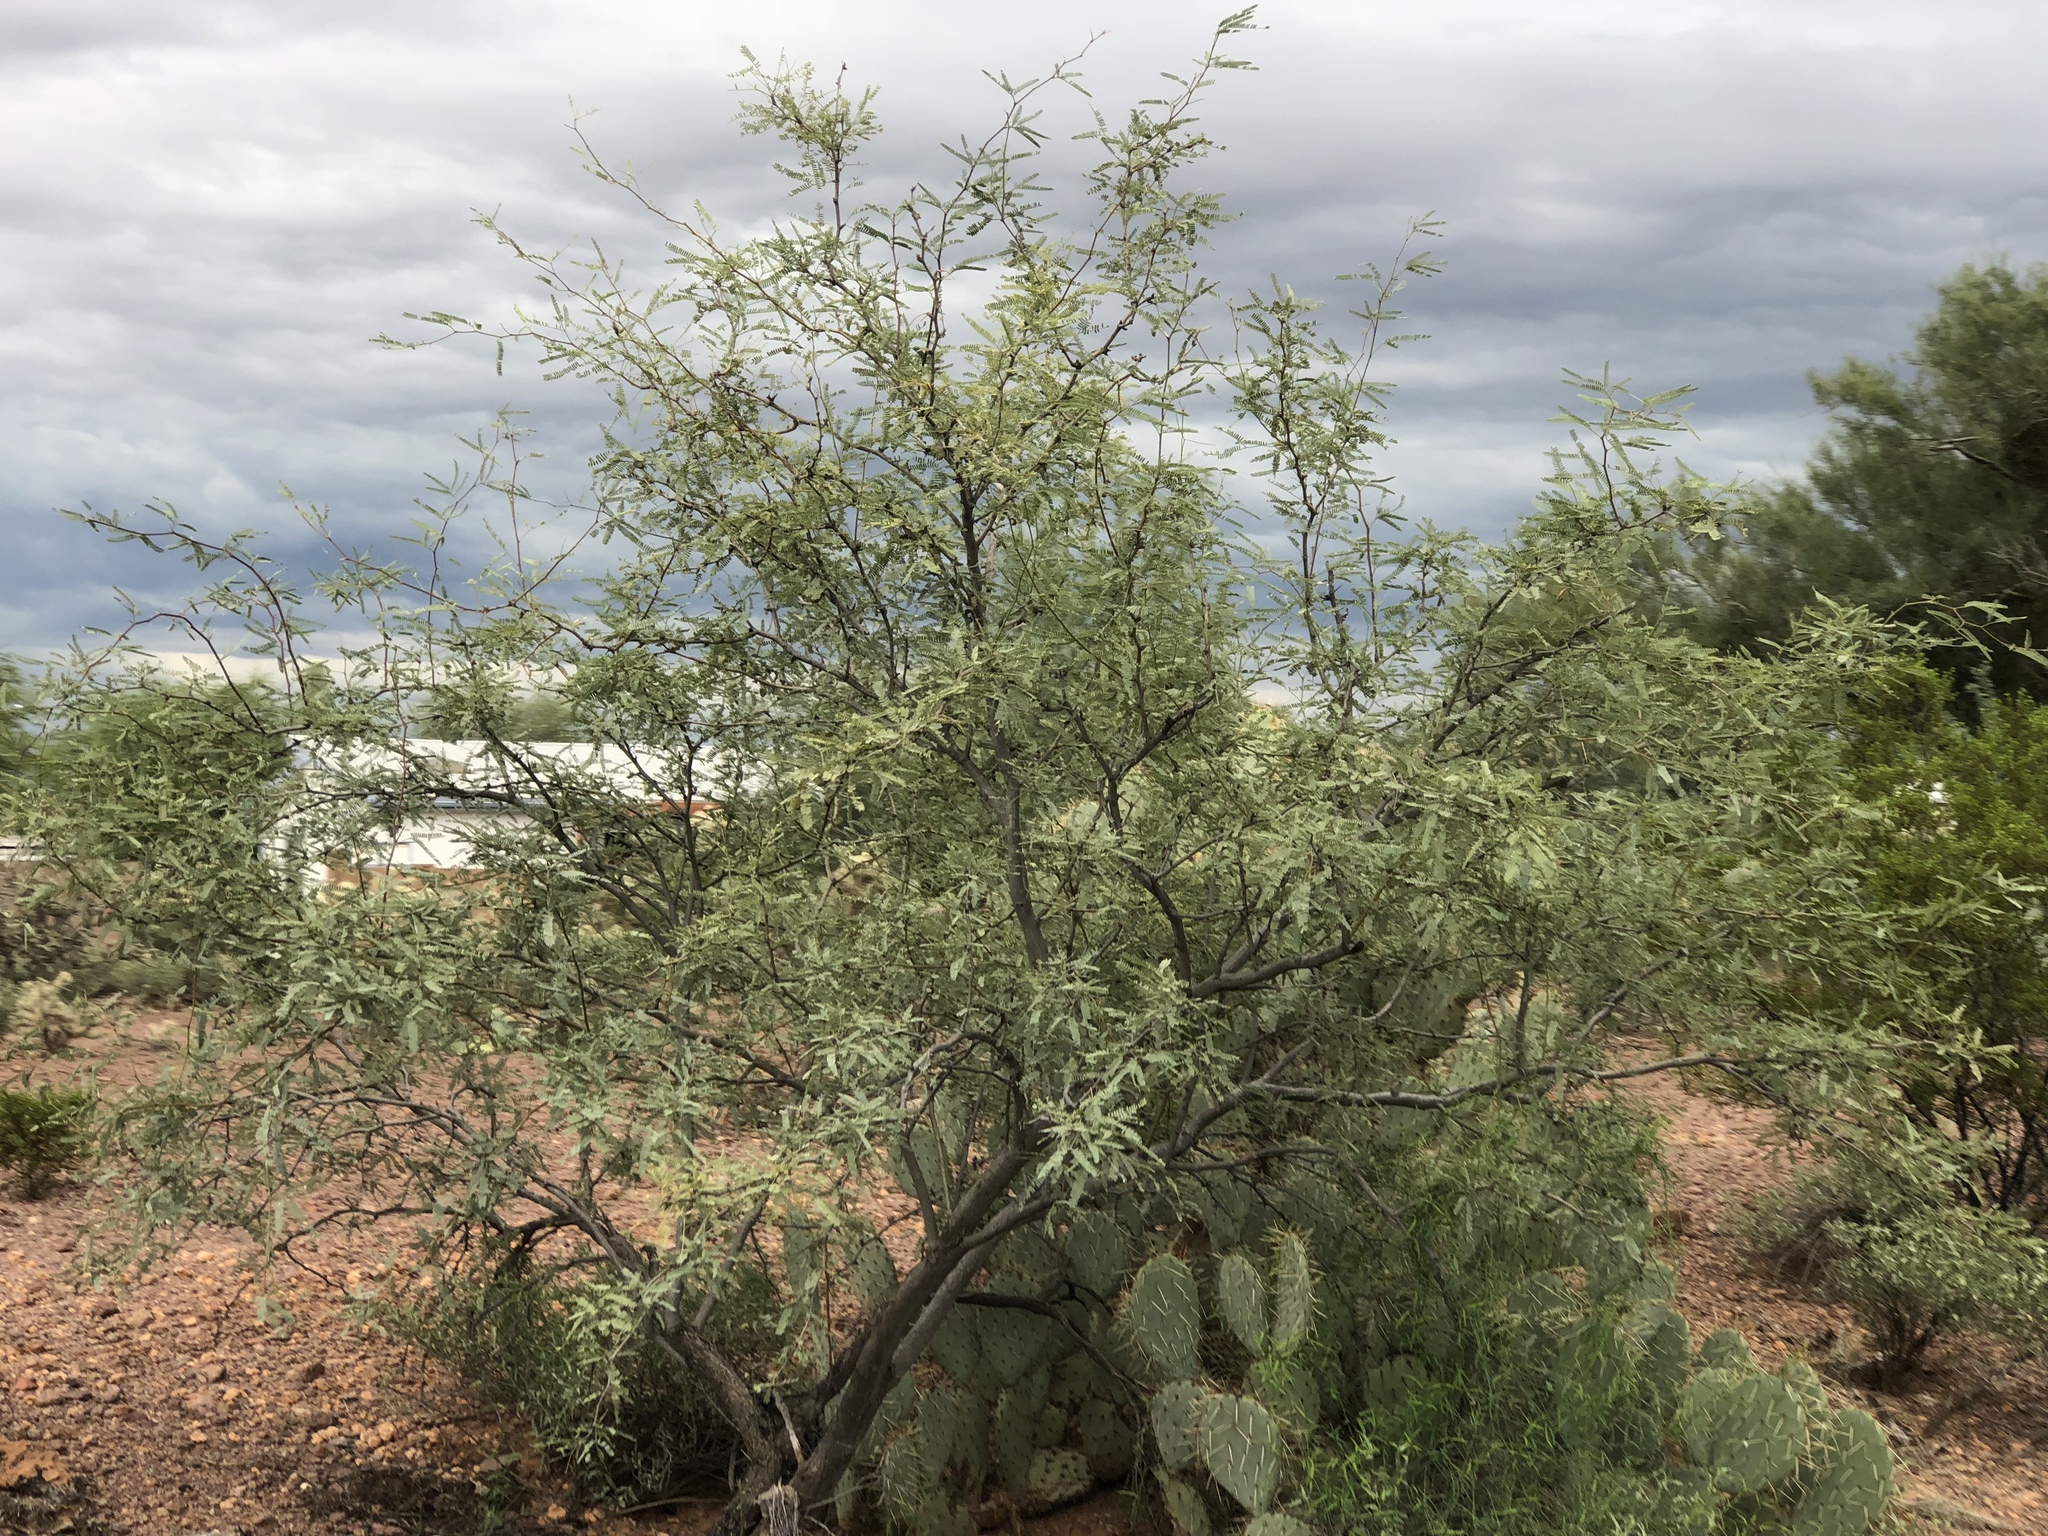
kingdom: Plantae
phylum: Tracheophyta
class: Magnoliopsida
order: Fabales
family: Fabaceae
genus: Prosopis
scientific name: Prosopis velutina
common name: Velvet mesquite
